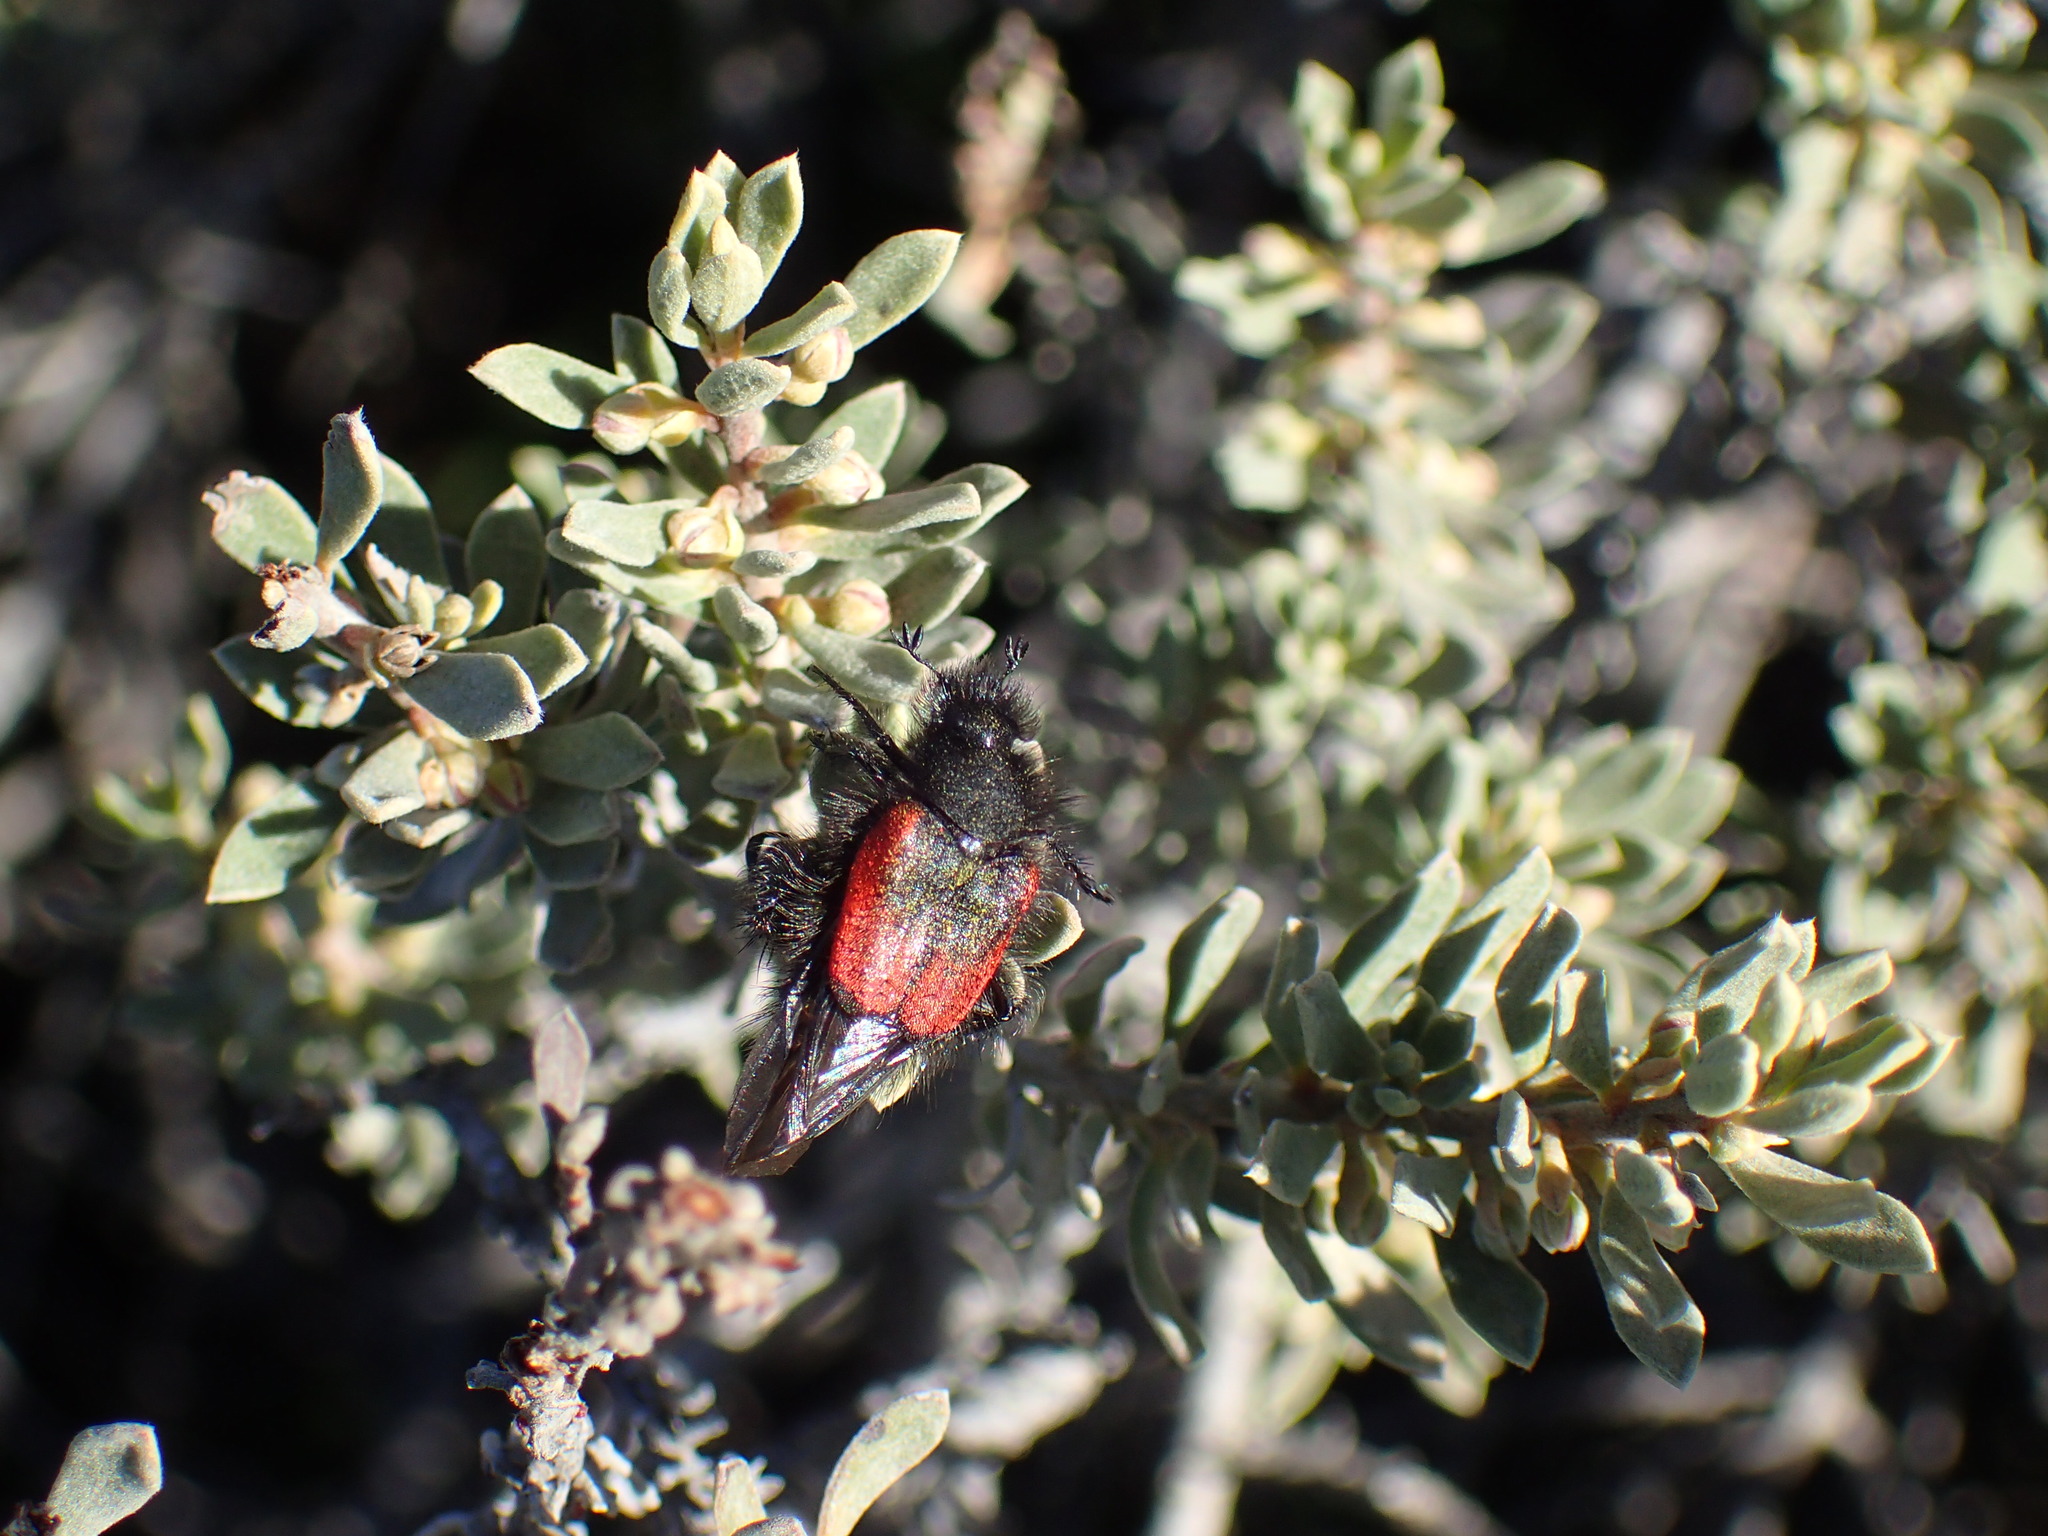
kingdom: Animalia
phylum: Arthropoda
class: Insecta
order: Coleoptera
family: Scarabaeidae
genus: Anisonyx
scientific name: Anisonyx militaris
